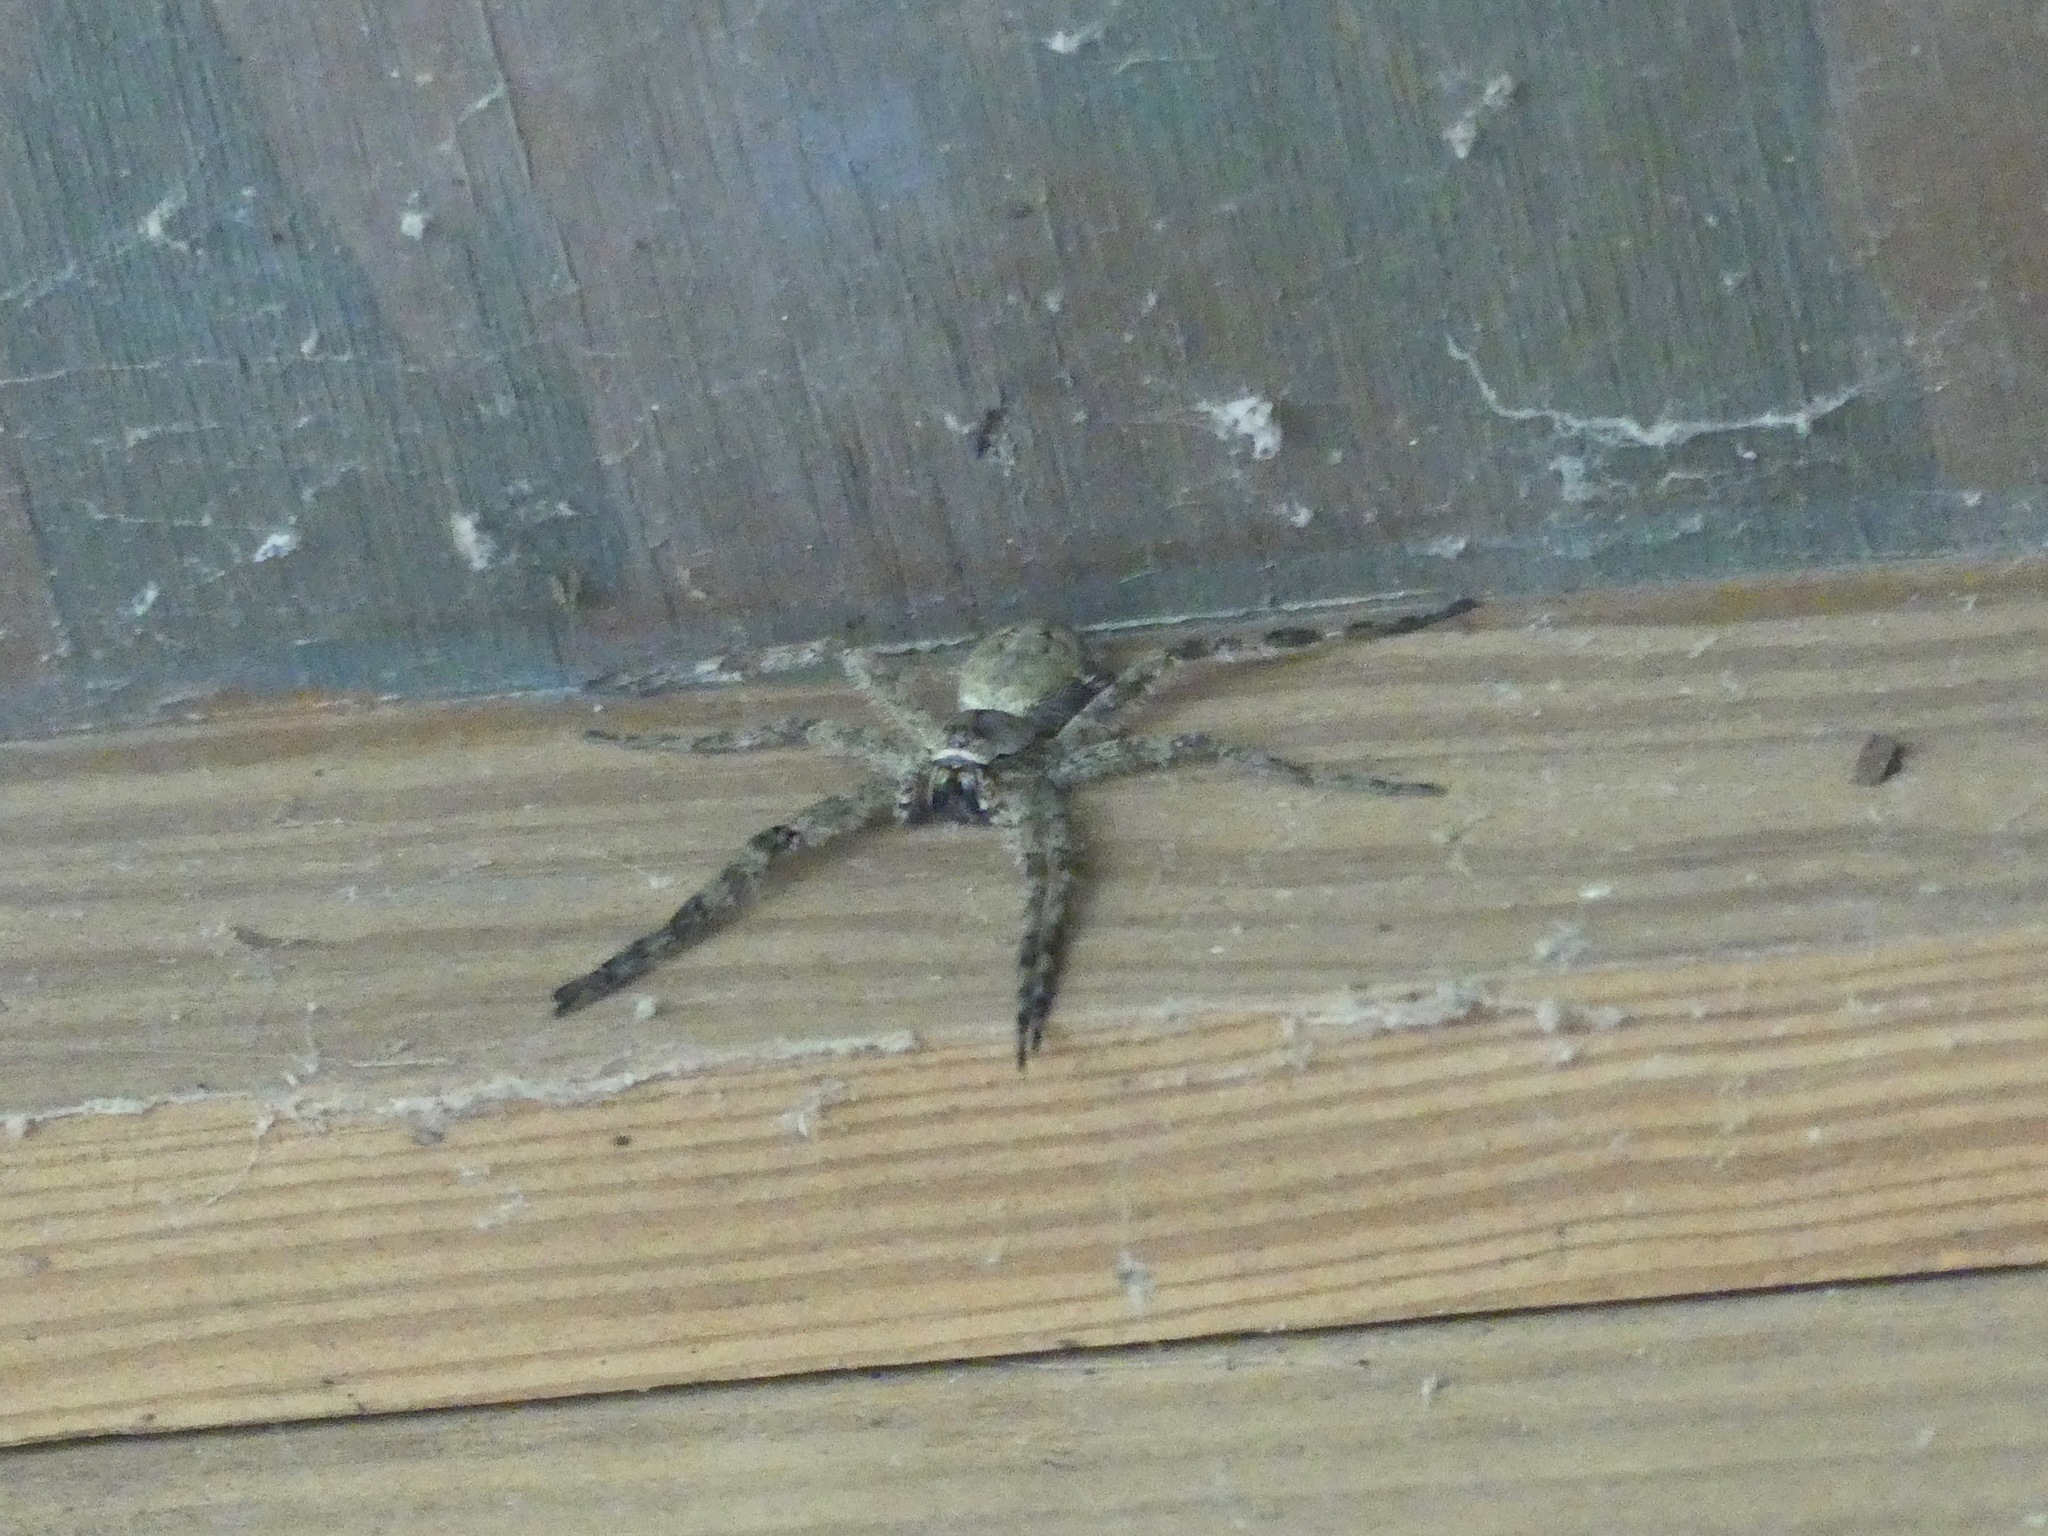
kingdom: Animalia
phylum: Arthropoda
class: Arachnida
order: Araneae
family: Pisauridae
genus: Dolomedes
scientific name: Dolomedes albineus
